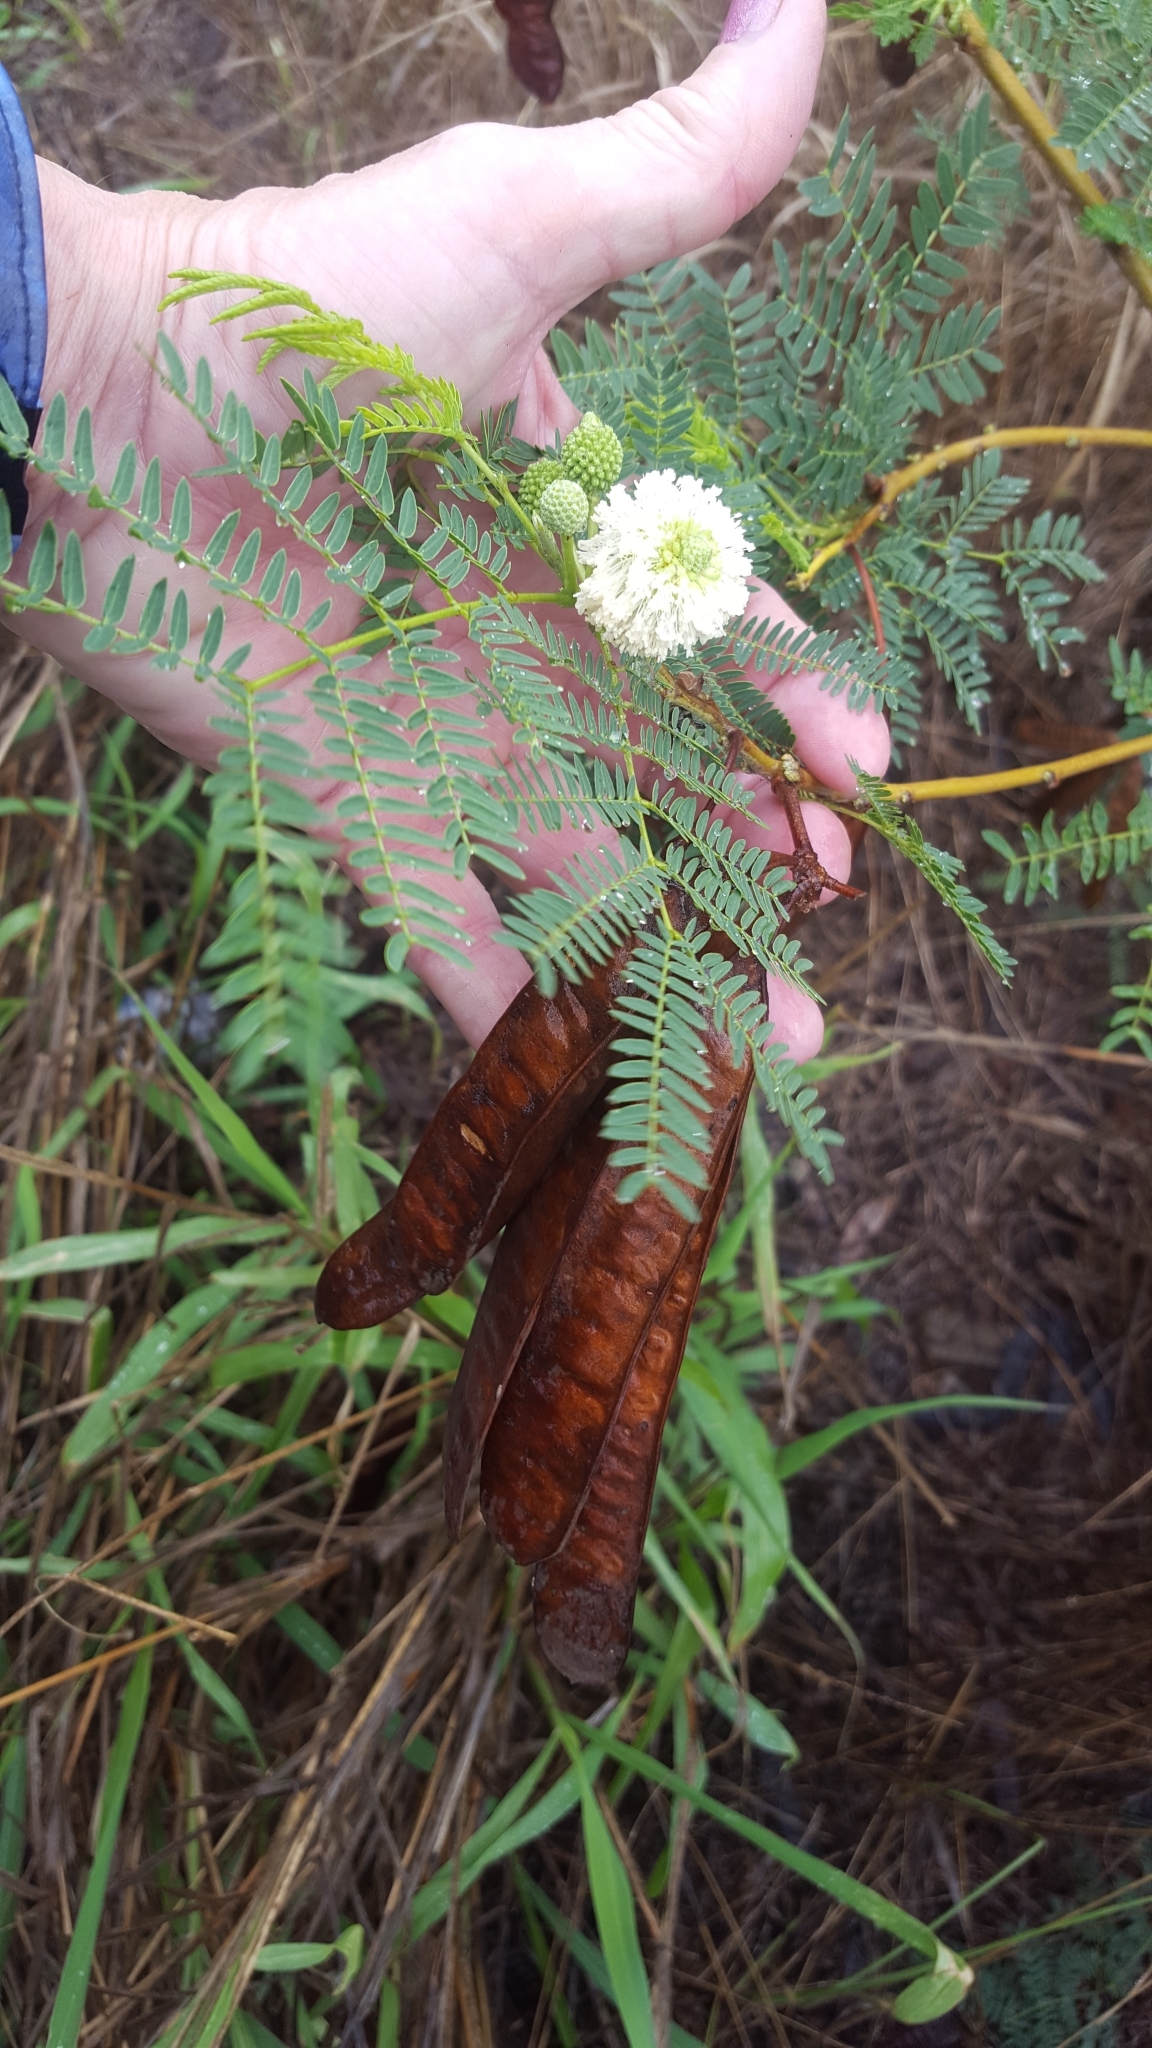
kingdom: Plantae
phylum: Tracheophyta
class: Magnoliopsida
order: Fabales
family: Fabaceae
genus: Leucaena
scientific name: Leucaena leucocephala
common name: White leadtree
